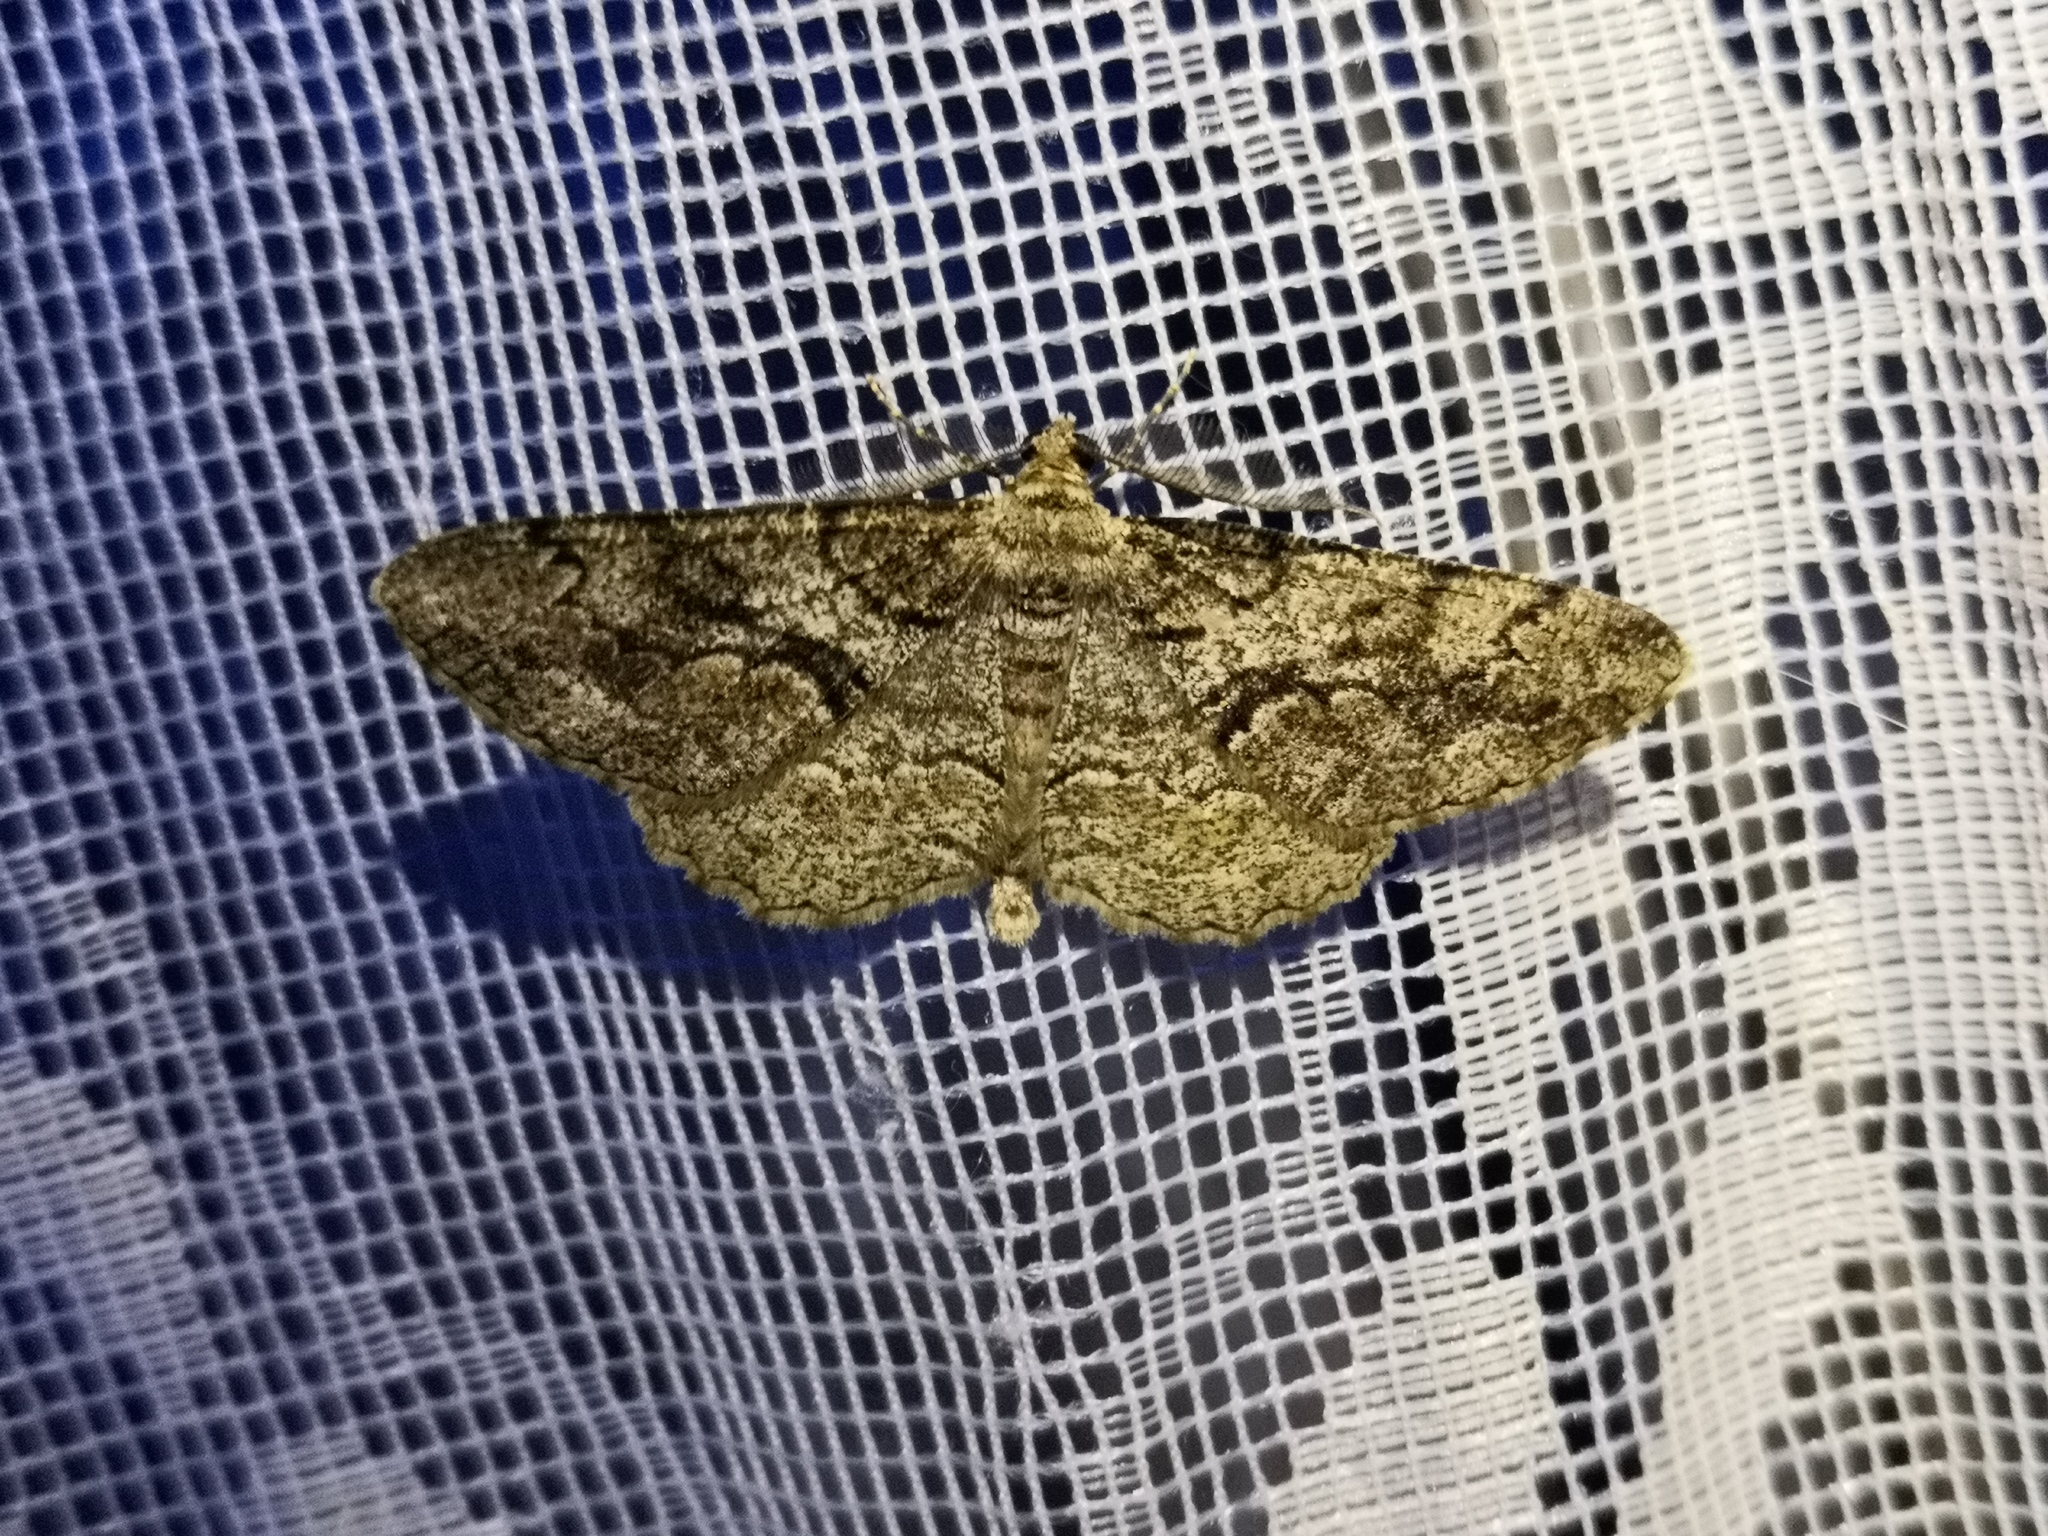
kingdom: Animalia
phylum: Arthropoda
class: Insecta
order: Lepidoptera
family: Geometridae
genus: Peribatodes
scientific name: Peribatodes secundaria
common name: Feathered beauty
